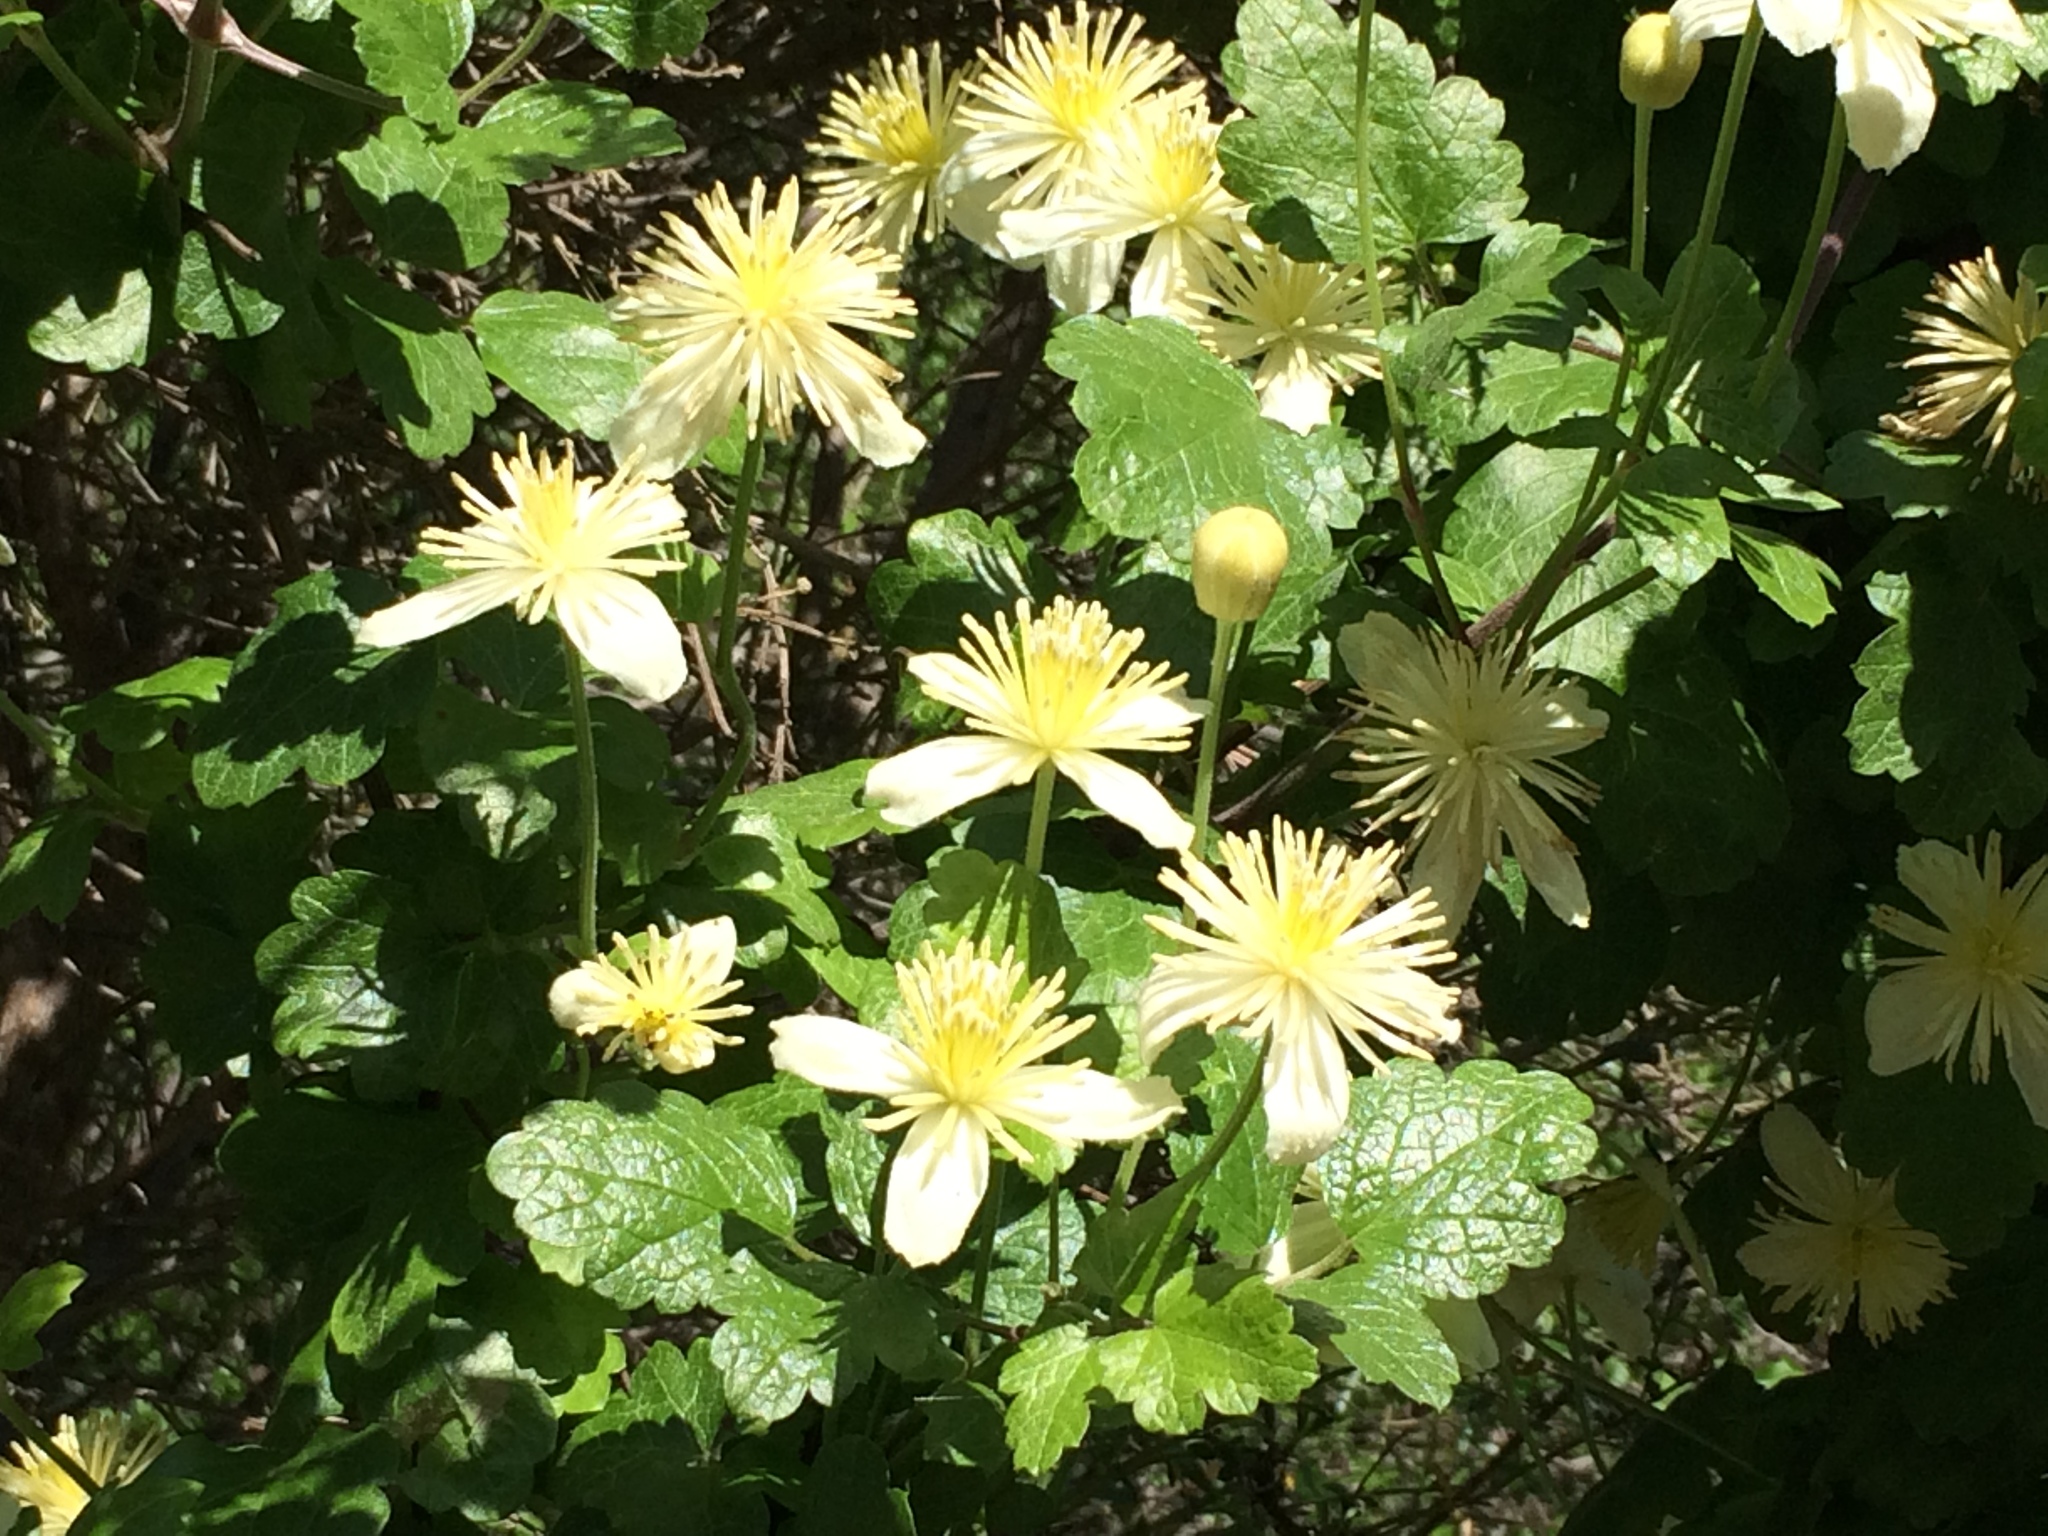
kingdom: Plantae
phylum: Tracheophyta
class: Magnoliopsida
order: Ranunculales
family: Ranunculaceae
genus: Clematis
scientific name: Clematis lasiantha
